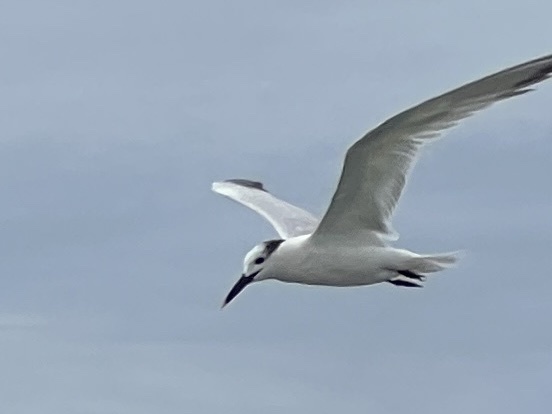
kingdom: Animalia
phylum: Chordata
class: Aves
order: Charadriiformes
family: Laridae
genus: Thalasseus
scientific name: Thalasseus sandvicensis
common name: Sandwich tern
